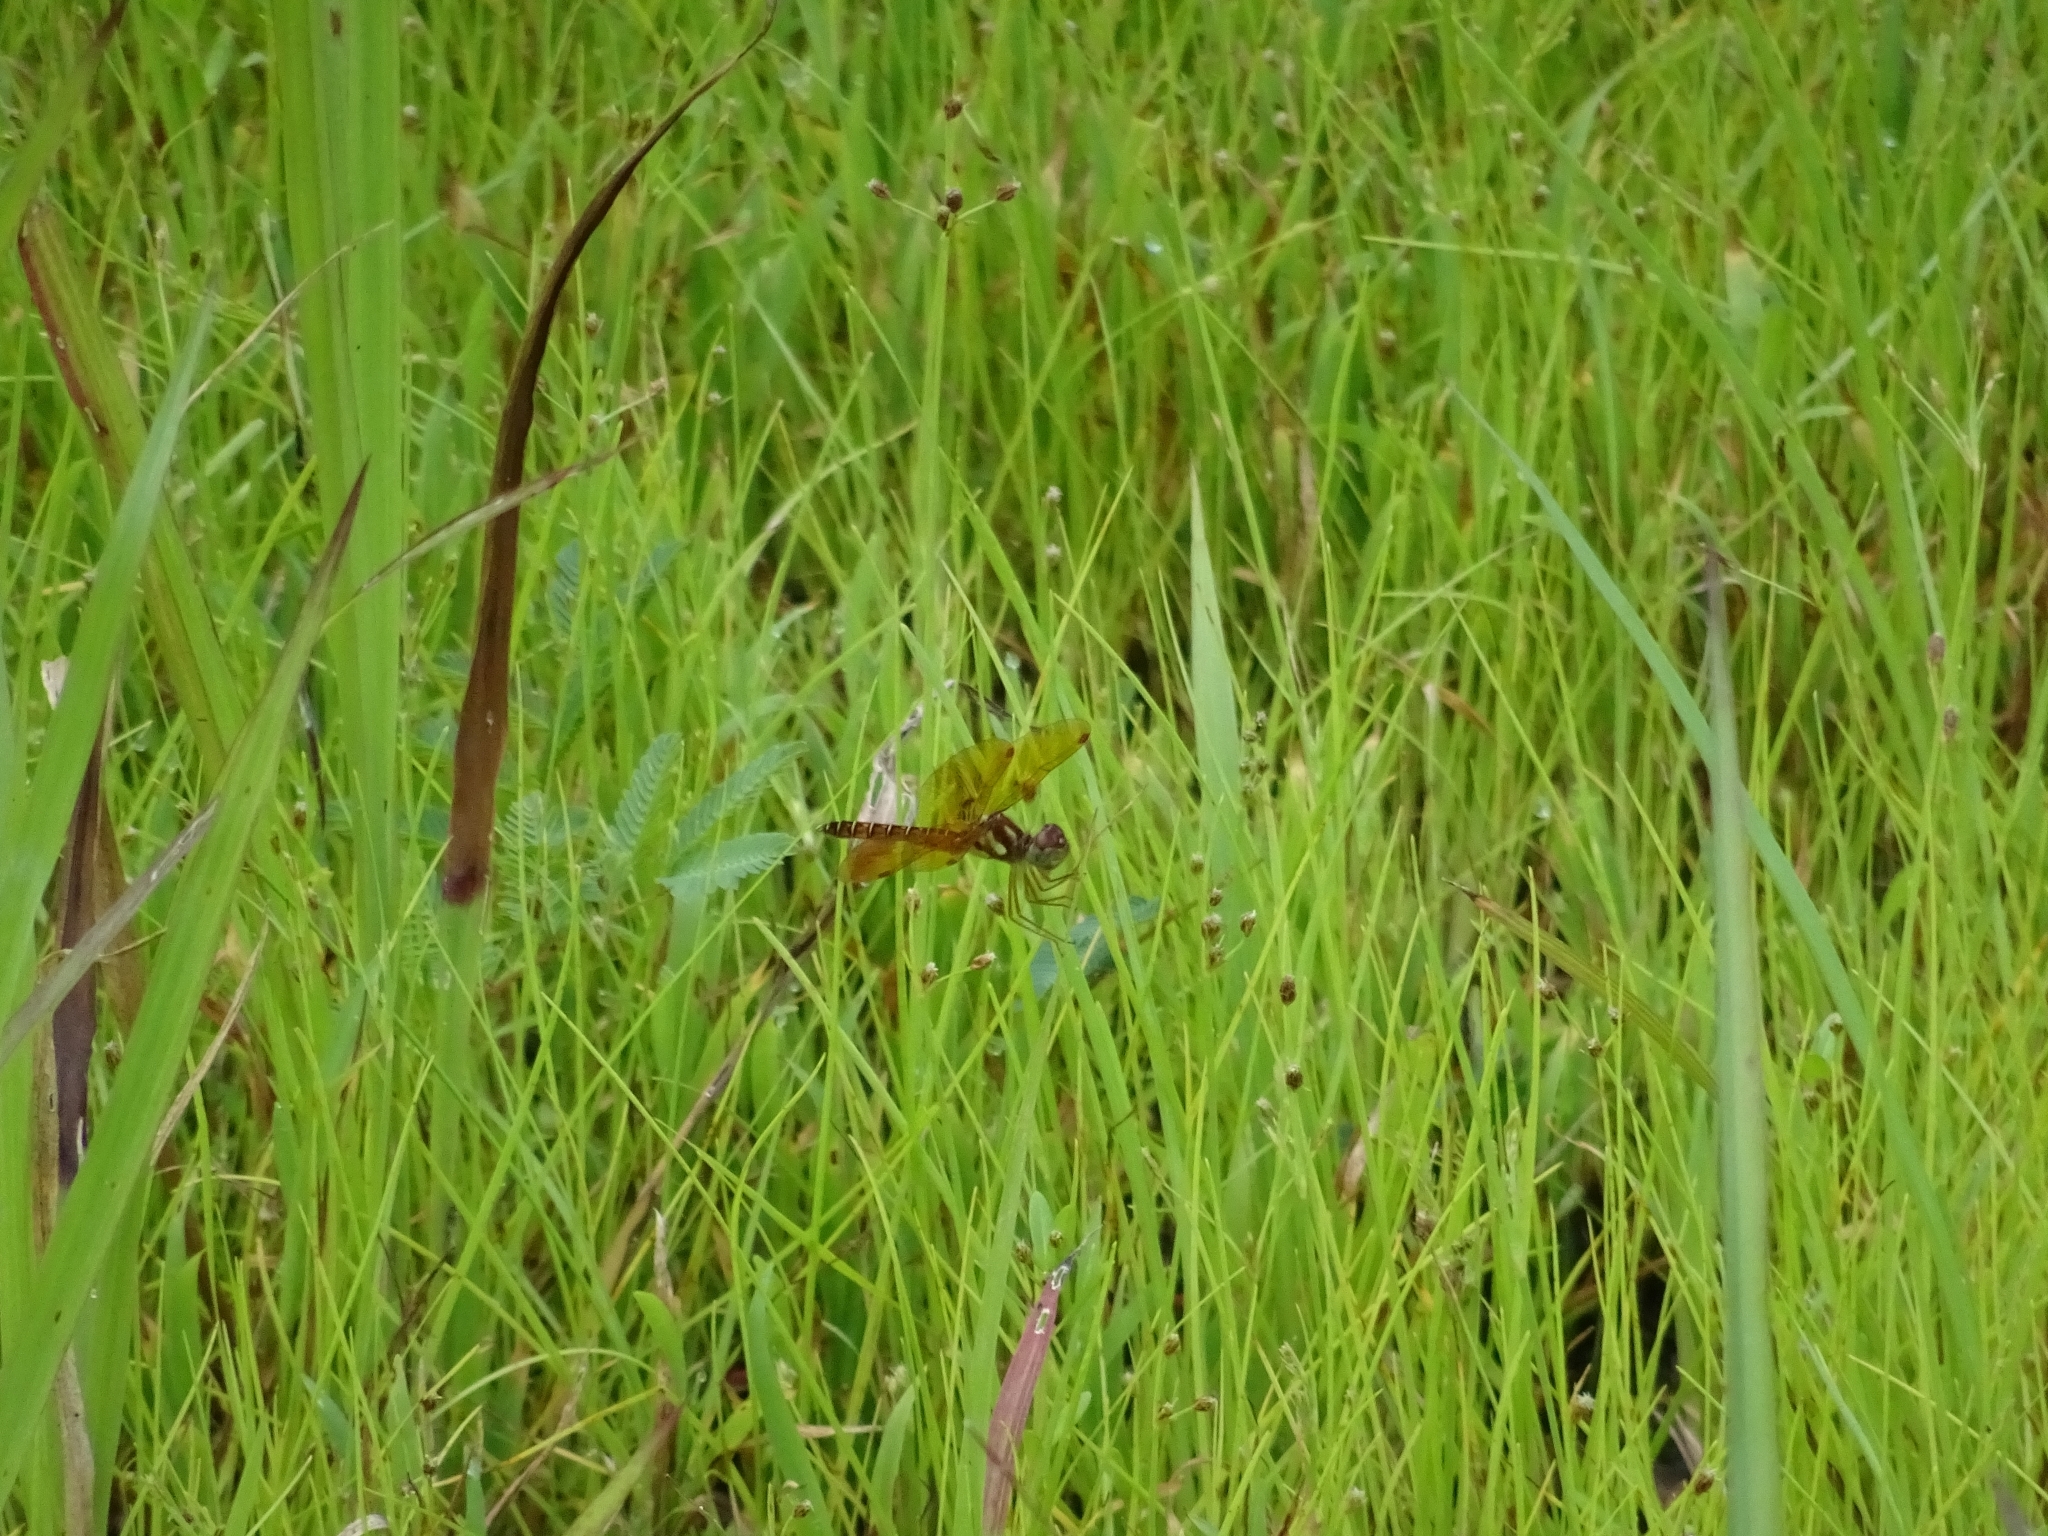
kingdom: Animalia
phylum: Arthropoda
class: Insecta
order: Odonata
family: Libellulidae
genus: Perithemis
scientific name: Perithemis tenera
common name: Eastern amberwing
